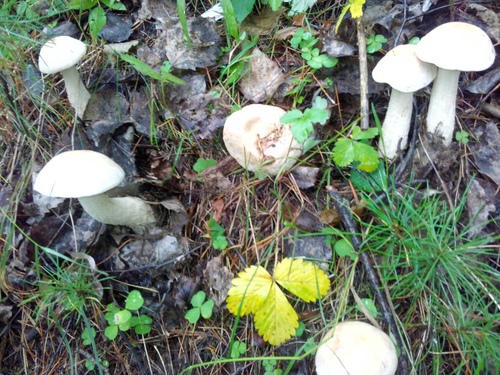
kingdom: Fungi
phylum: Basidiomycota
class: Agaricomycetes
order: Boletales
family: Boletaceae
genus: Leccinum
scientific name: Leccinum
